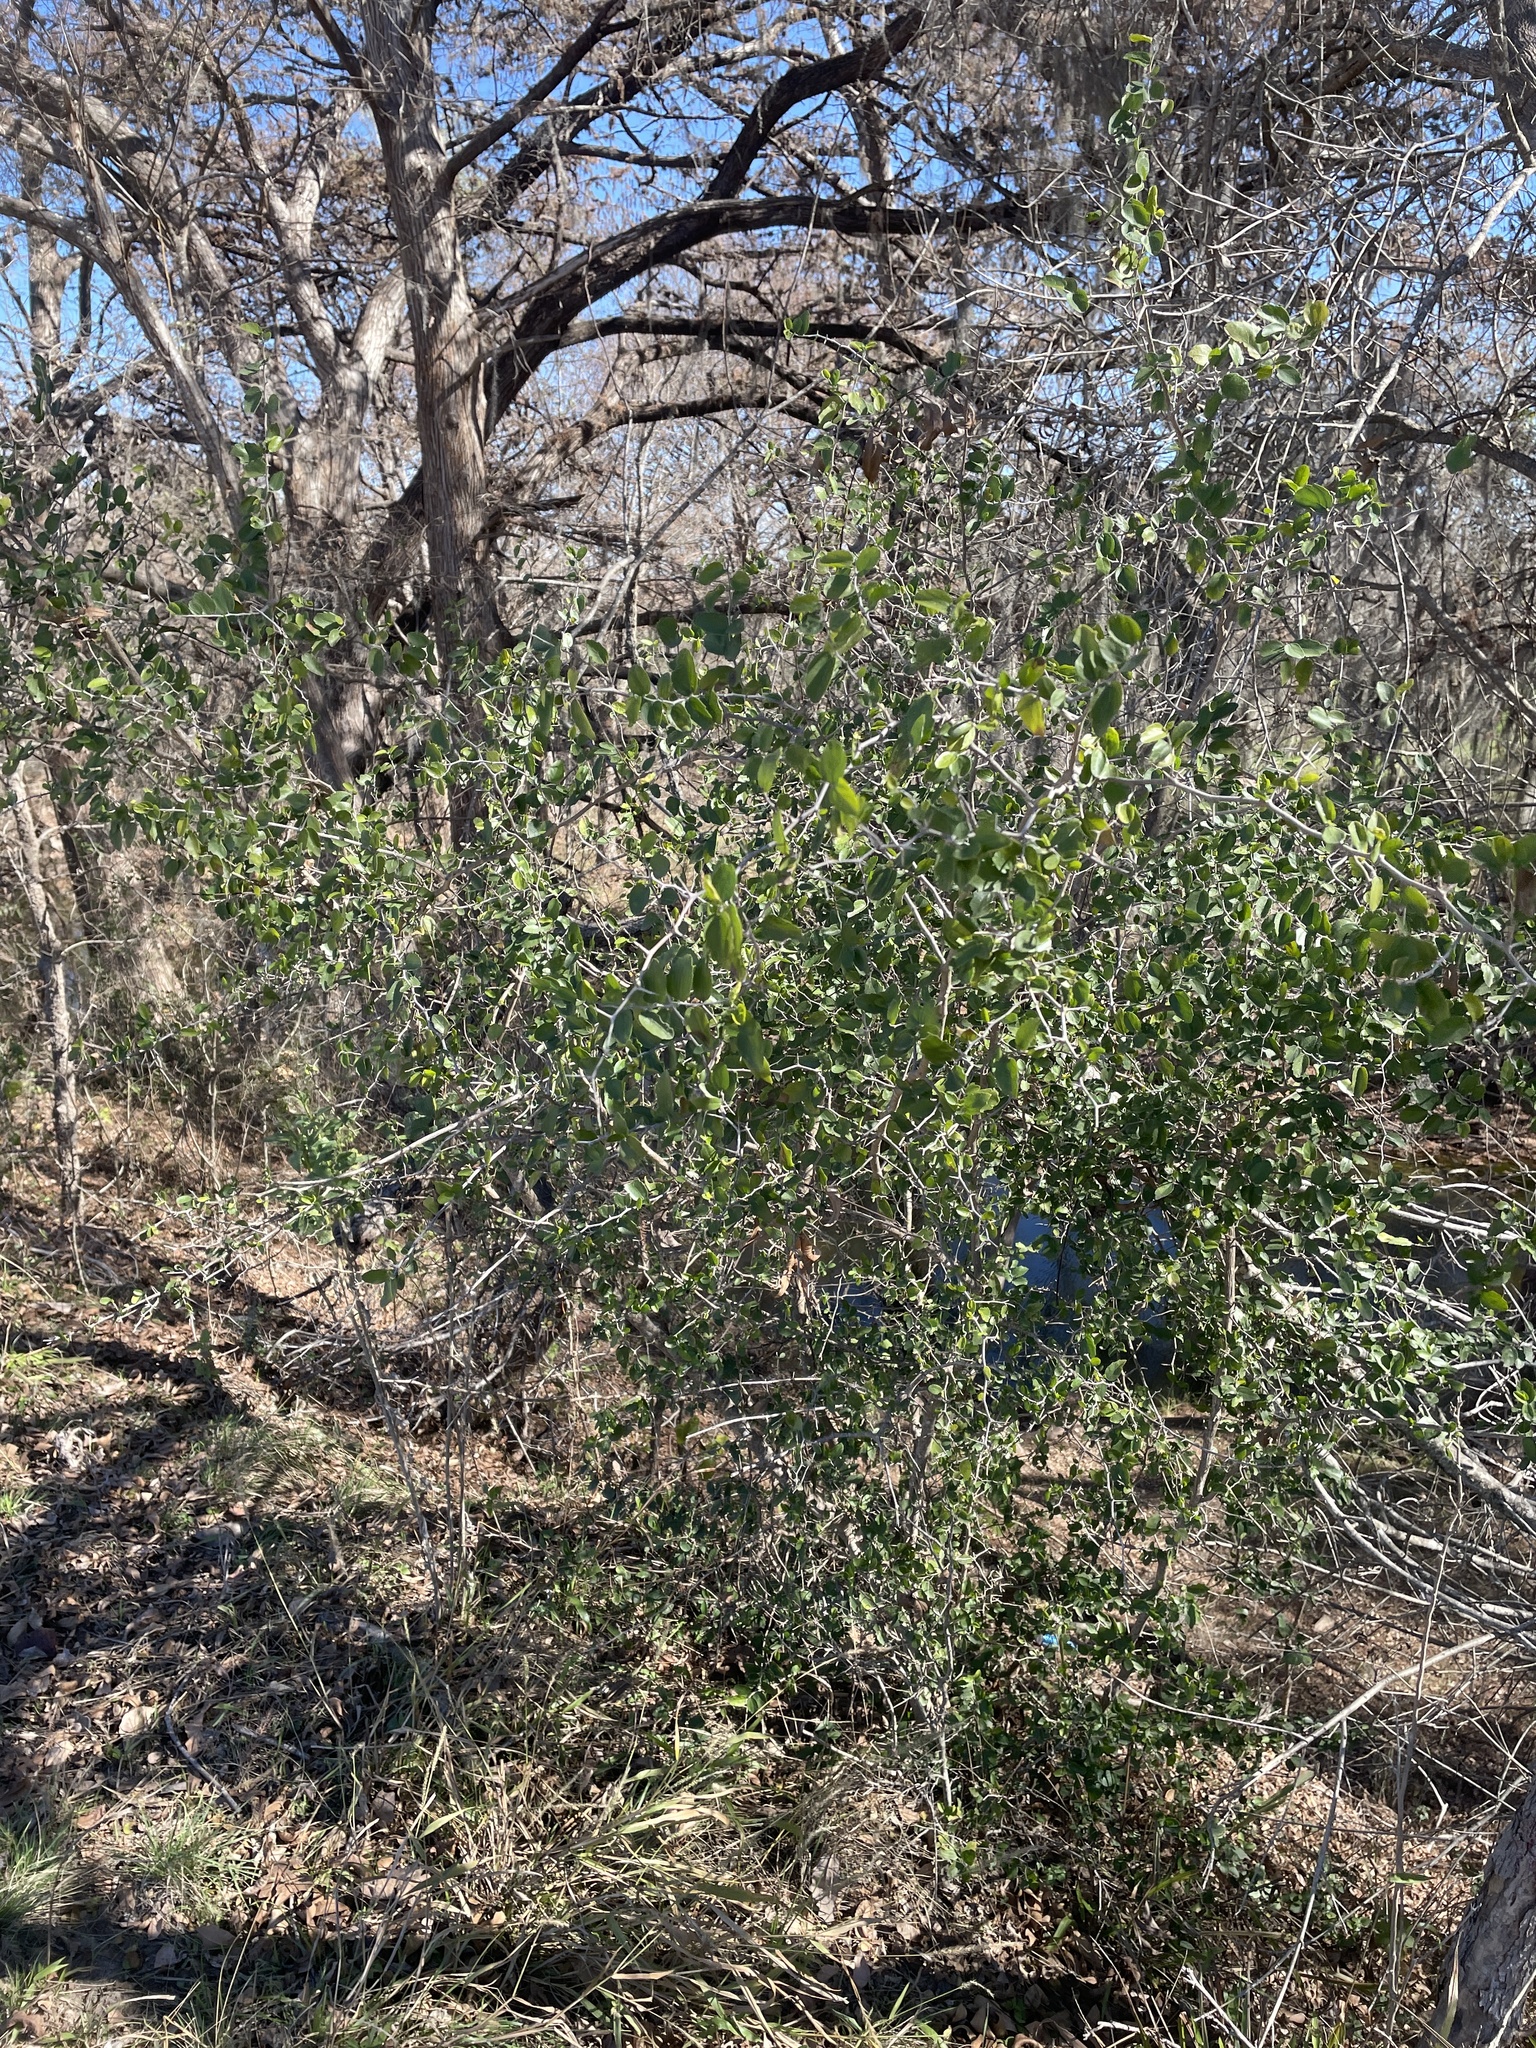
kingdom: Plantae
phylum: Tracheophyta
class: Magnoliopsida
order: Rosales
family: Cannabaceae
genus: Celtis
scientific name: Celtis pallida
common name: Desert hackberry
